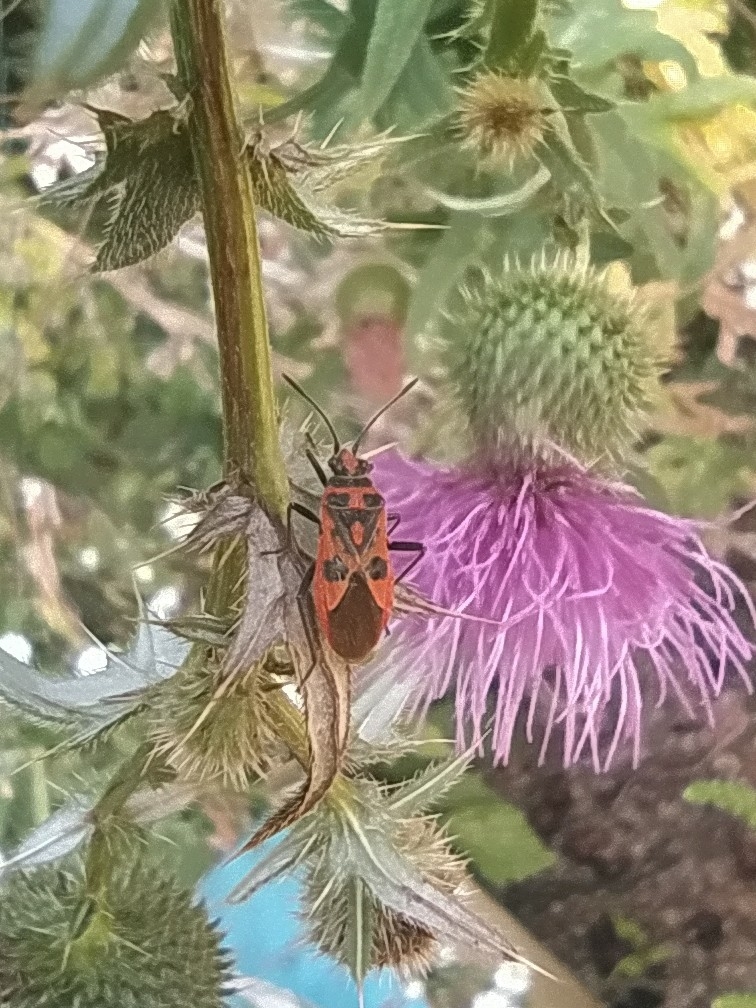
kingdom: Animalia
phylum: Arthropoda
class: Insecta
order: Hemiptera
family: Rhopalidae
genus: Corizus
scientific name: Corizus hyoscyami
